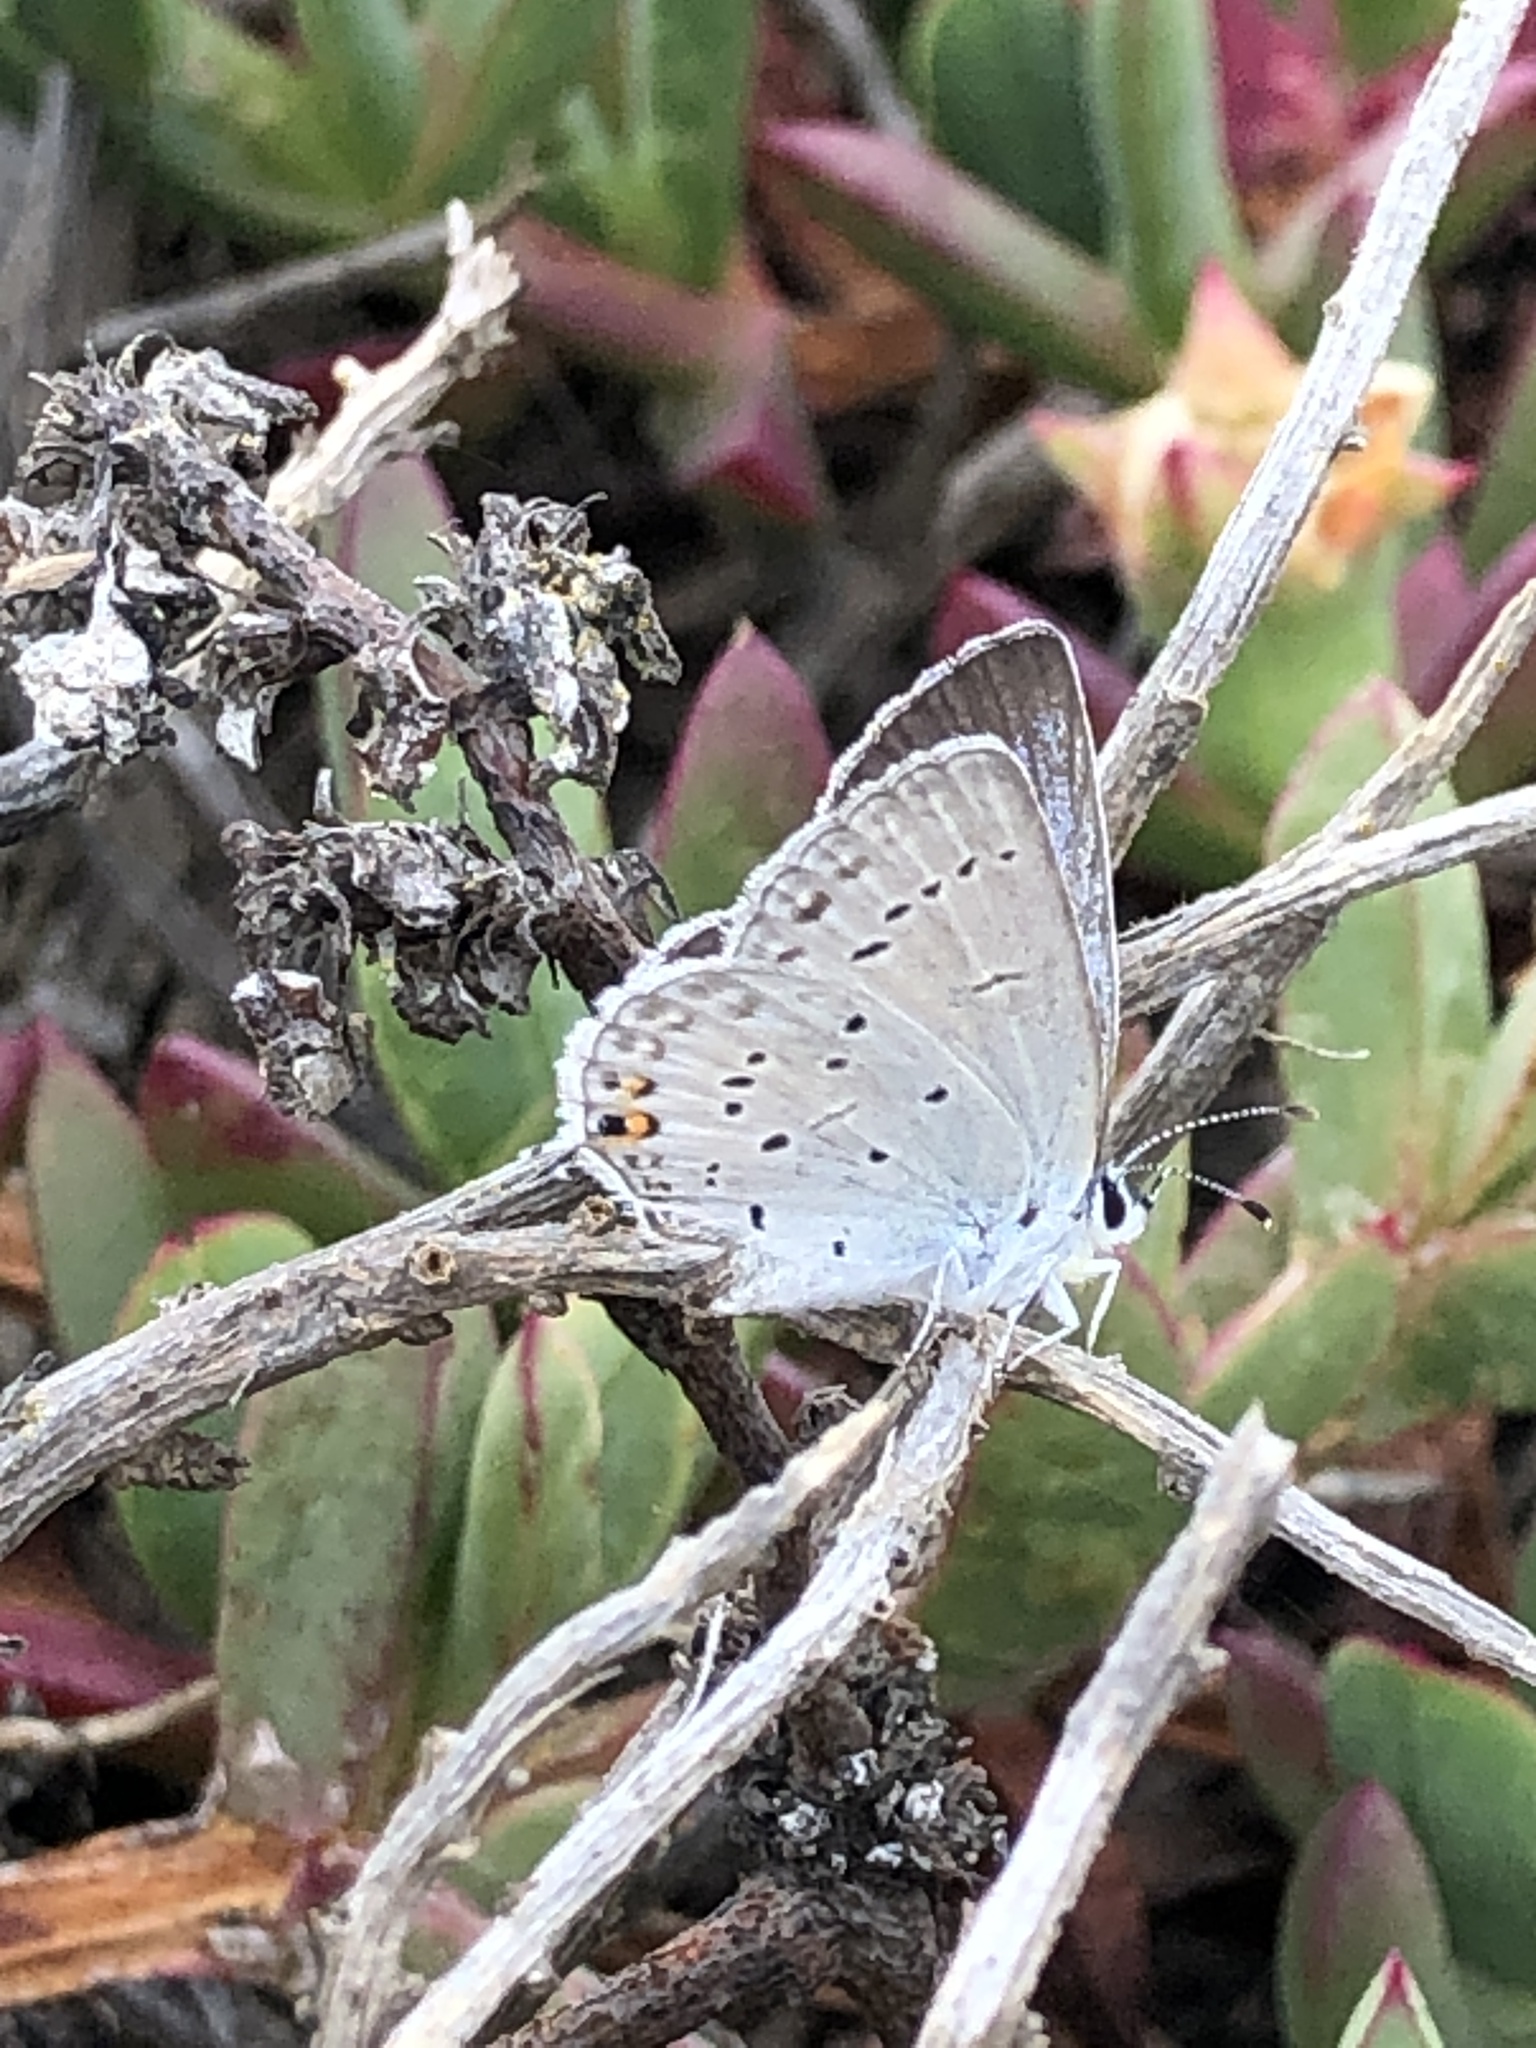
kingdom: Animalia
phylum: Arthropoda
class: Insecta
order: Lepidoptera
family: Lycaenidae
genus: Elkalyce
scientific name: Elkalyce amyntula
